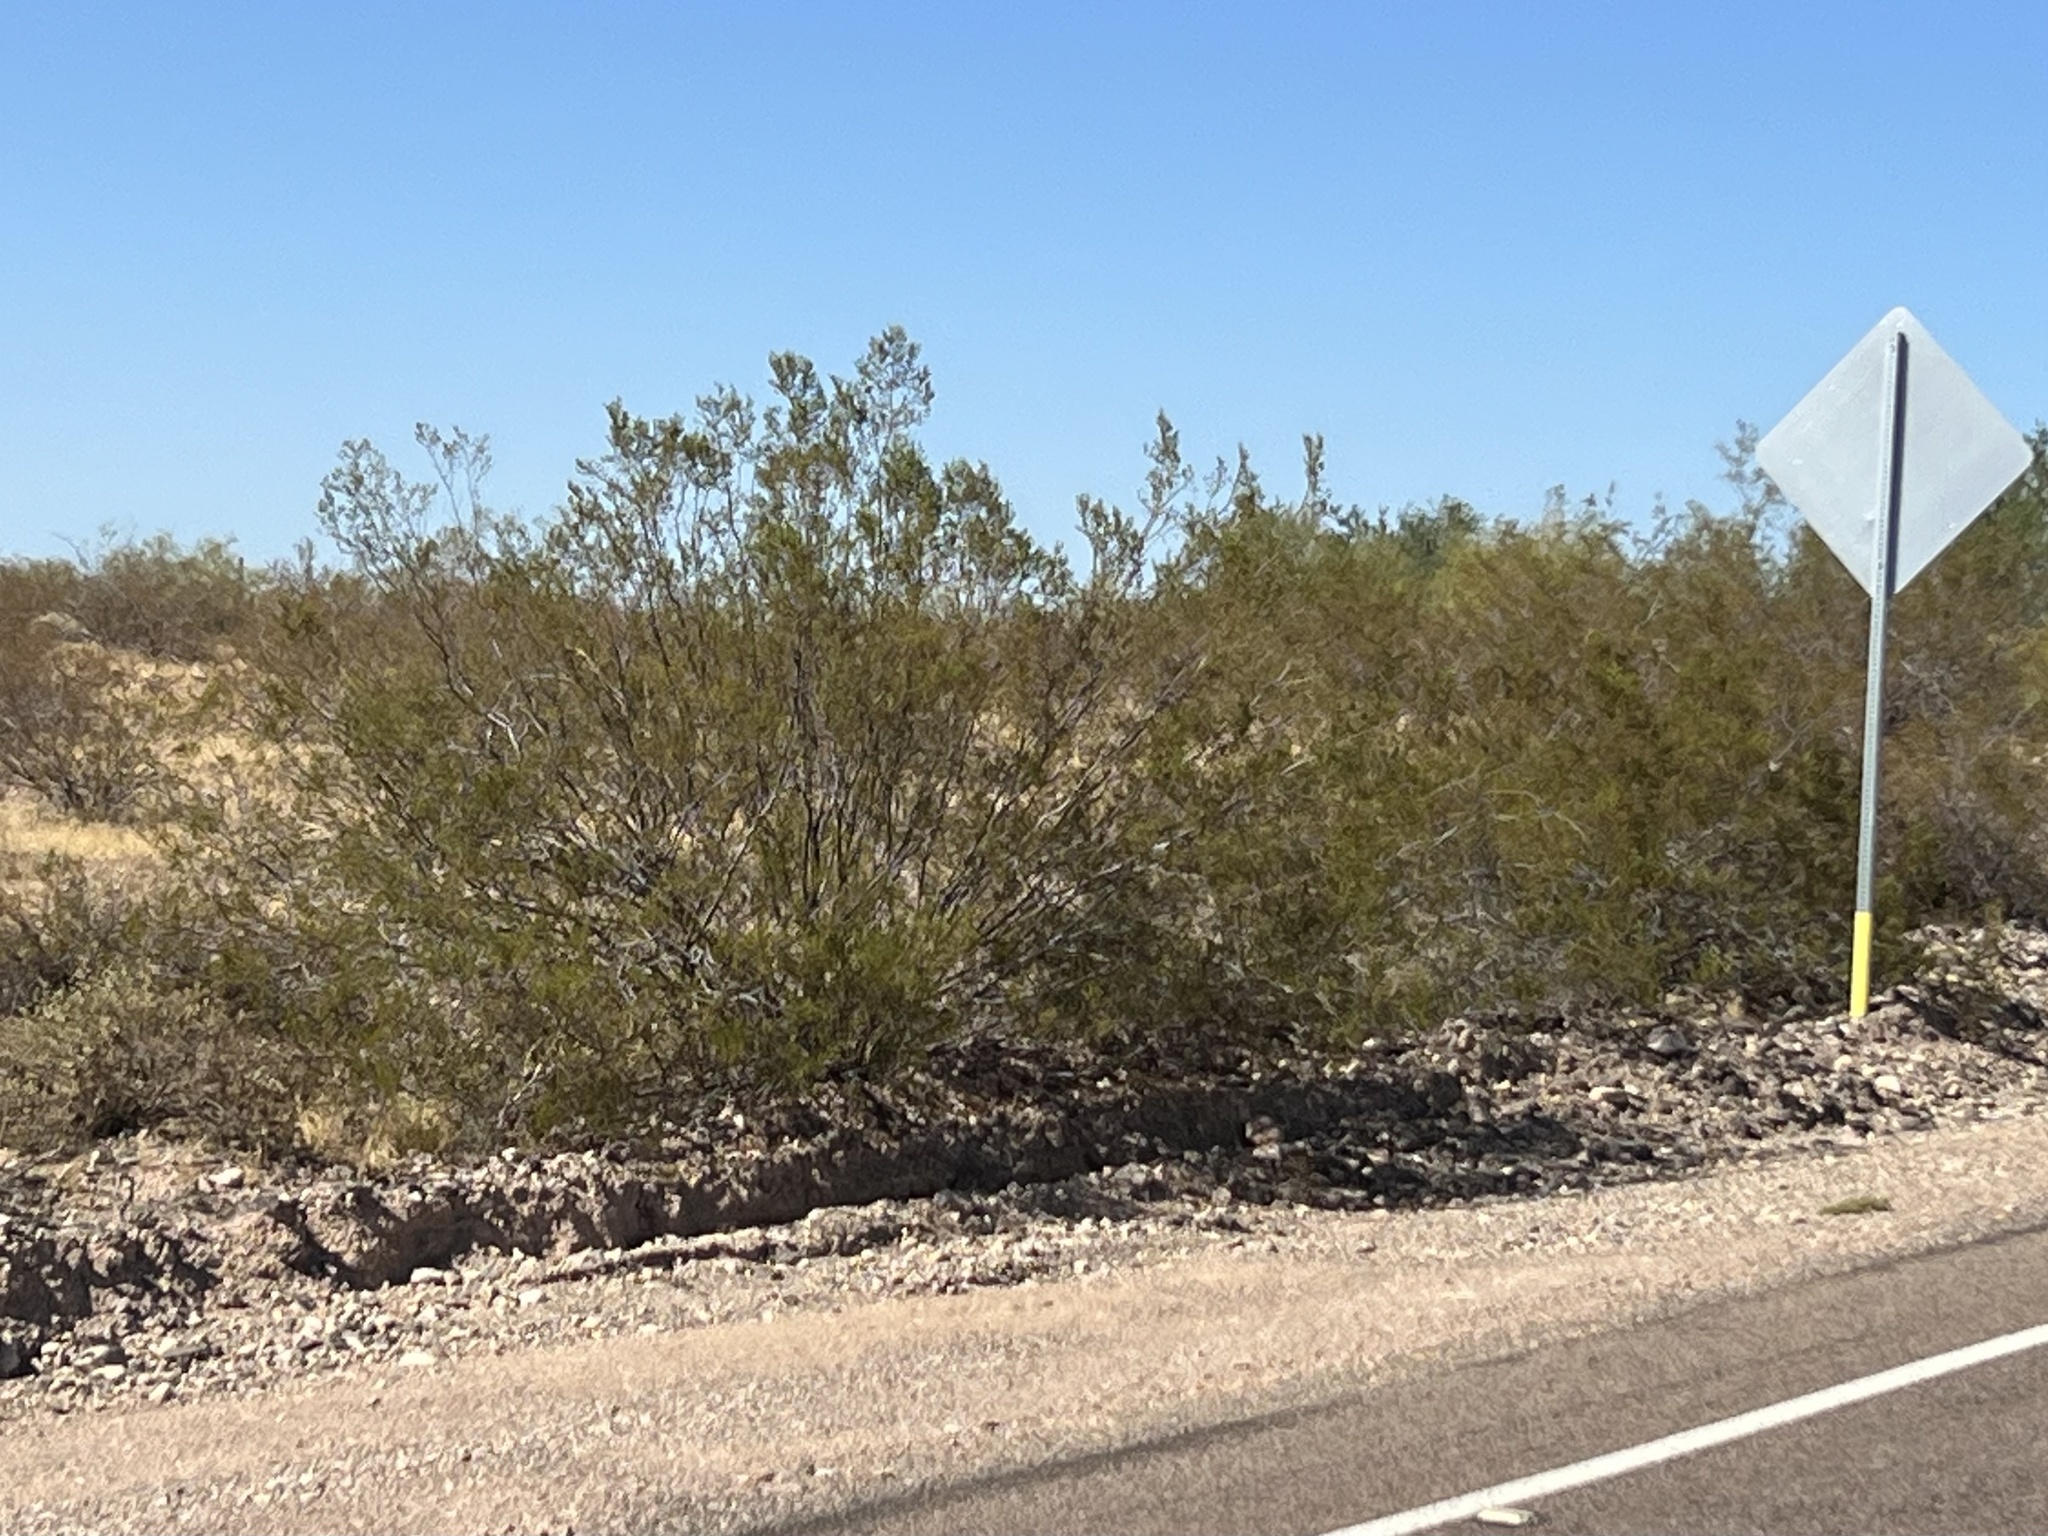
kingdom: Plantae
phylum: Tracheophyta
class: Magnoliopsida
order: Zygophyllales
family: Zygophyllaceae
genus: Larrea
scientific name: Larrea tridentata
